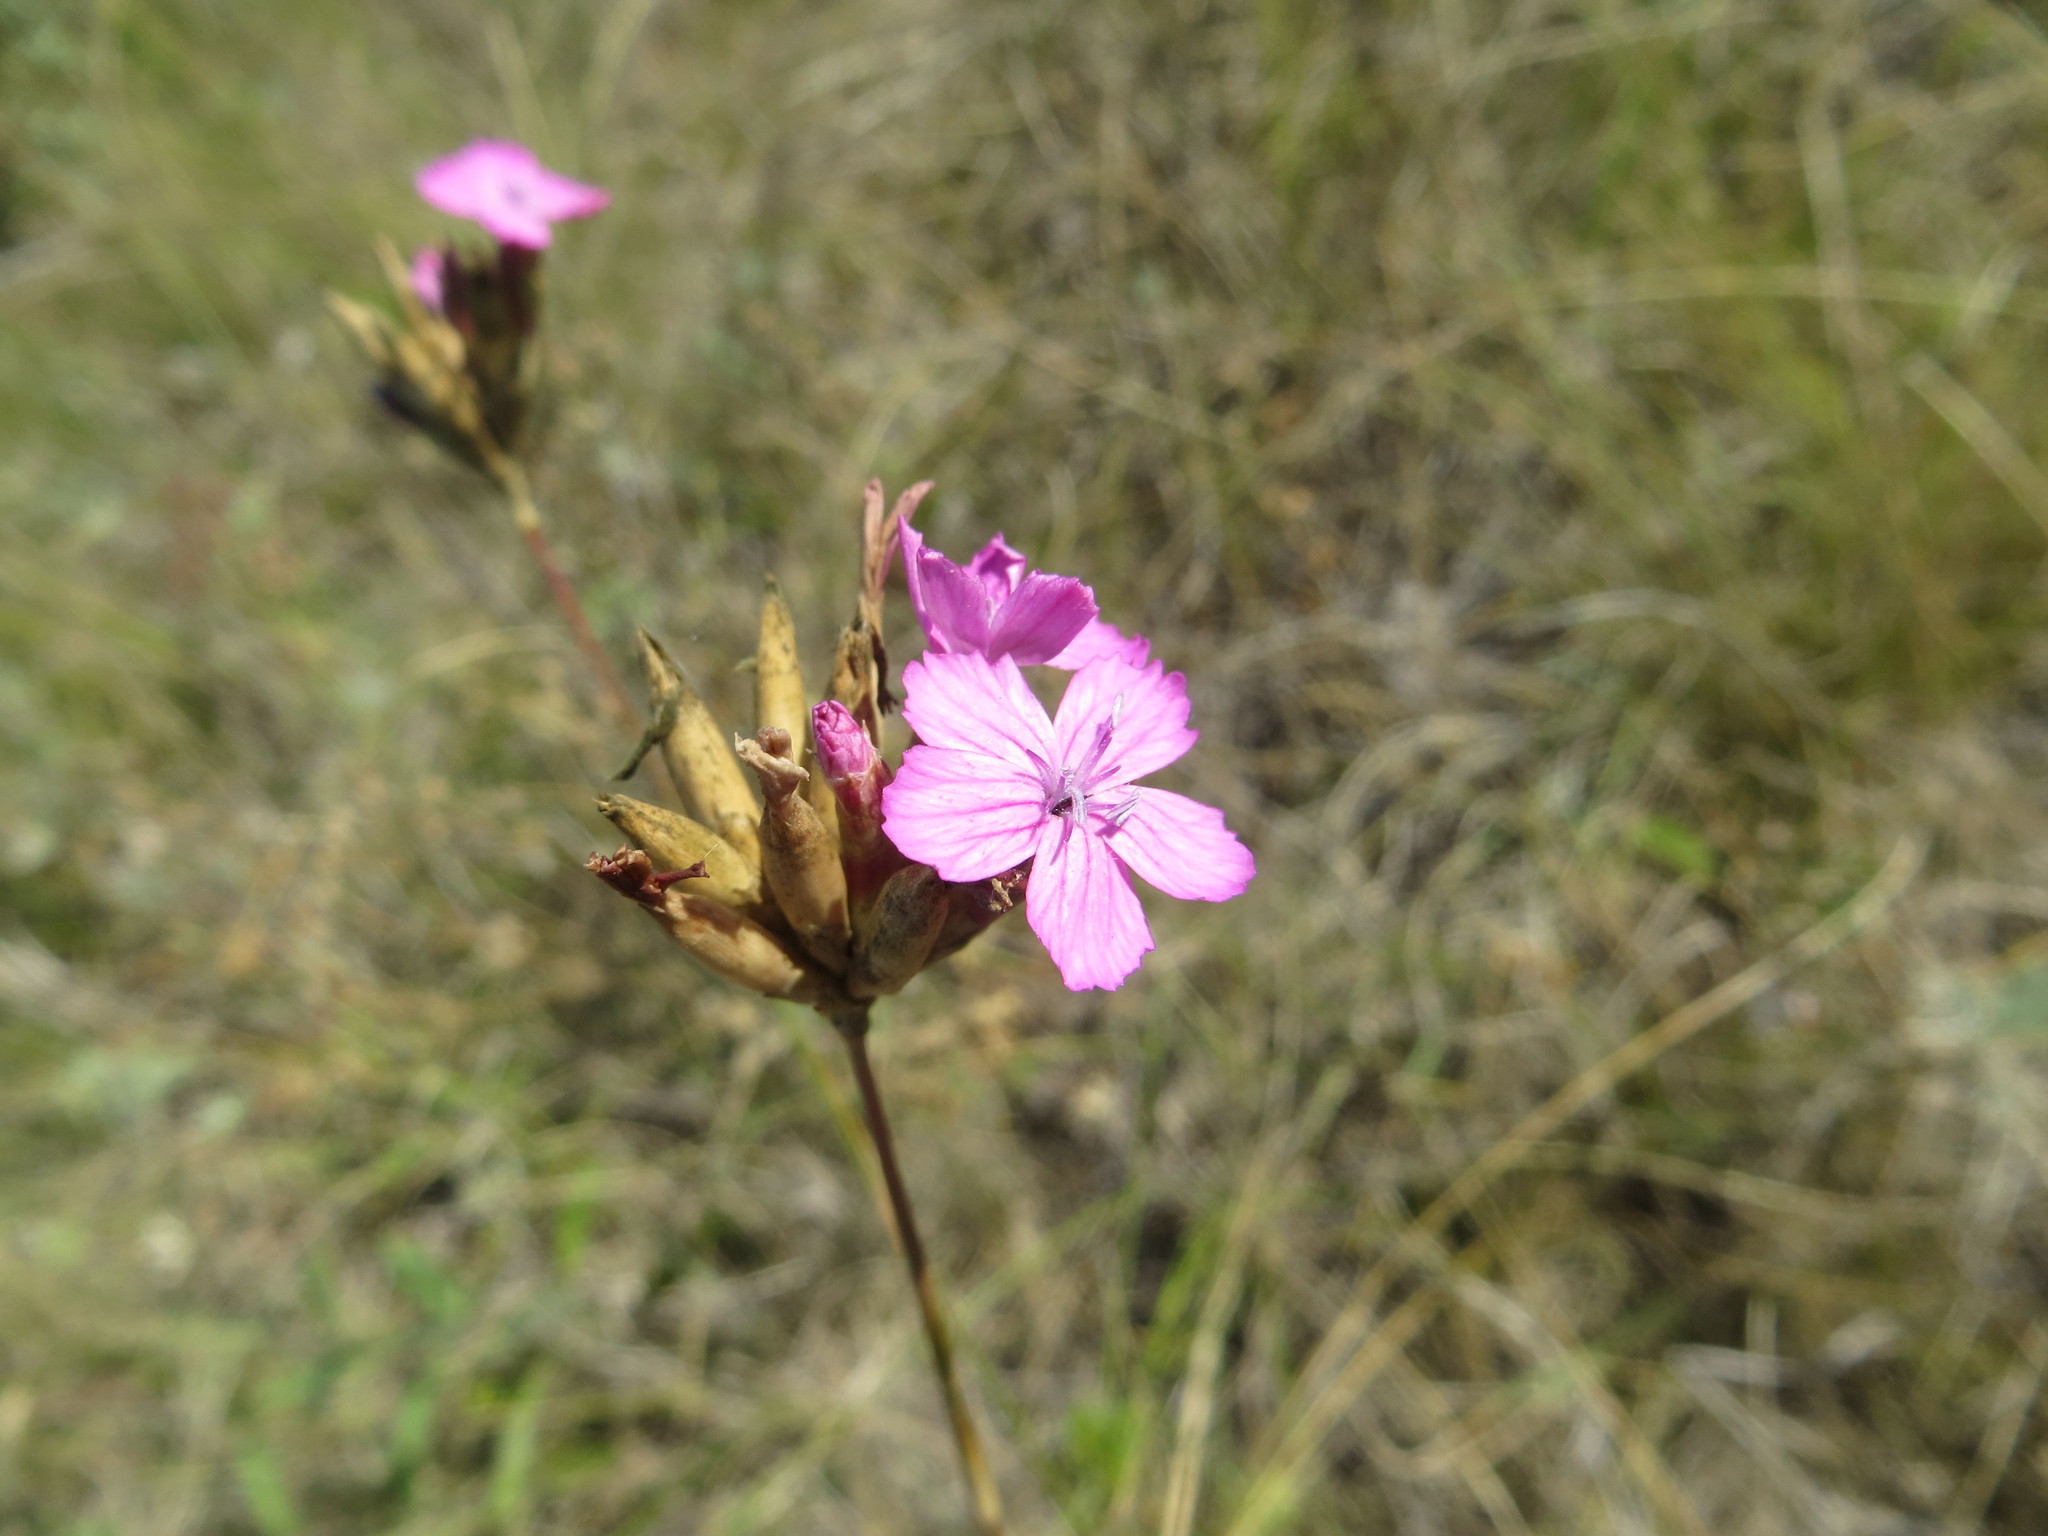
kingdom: Plantae
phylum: Tracheophyta
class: Magnoliopsida
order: Caryophyllales
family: Caryophyllaceae
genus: Dianthus
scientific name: Dianthus borbasii
